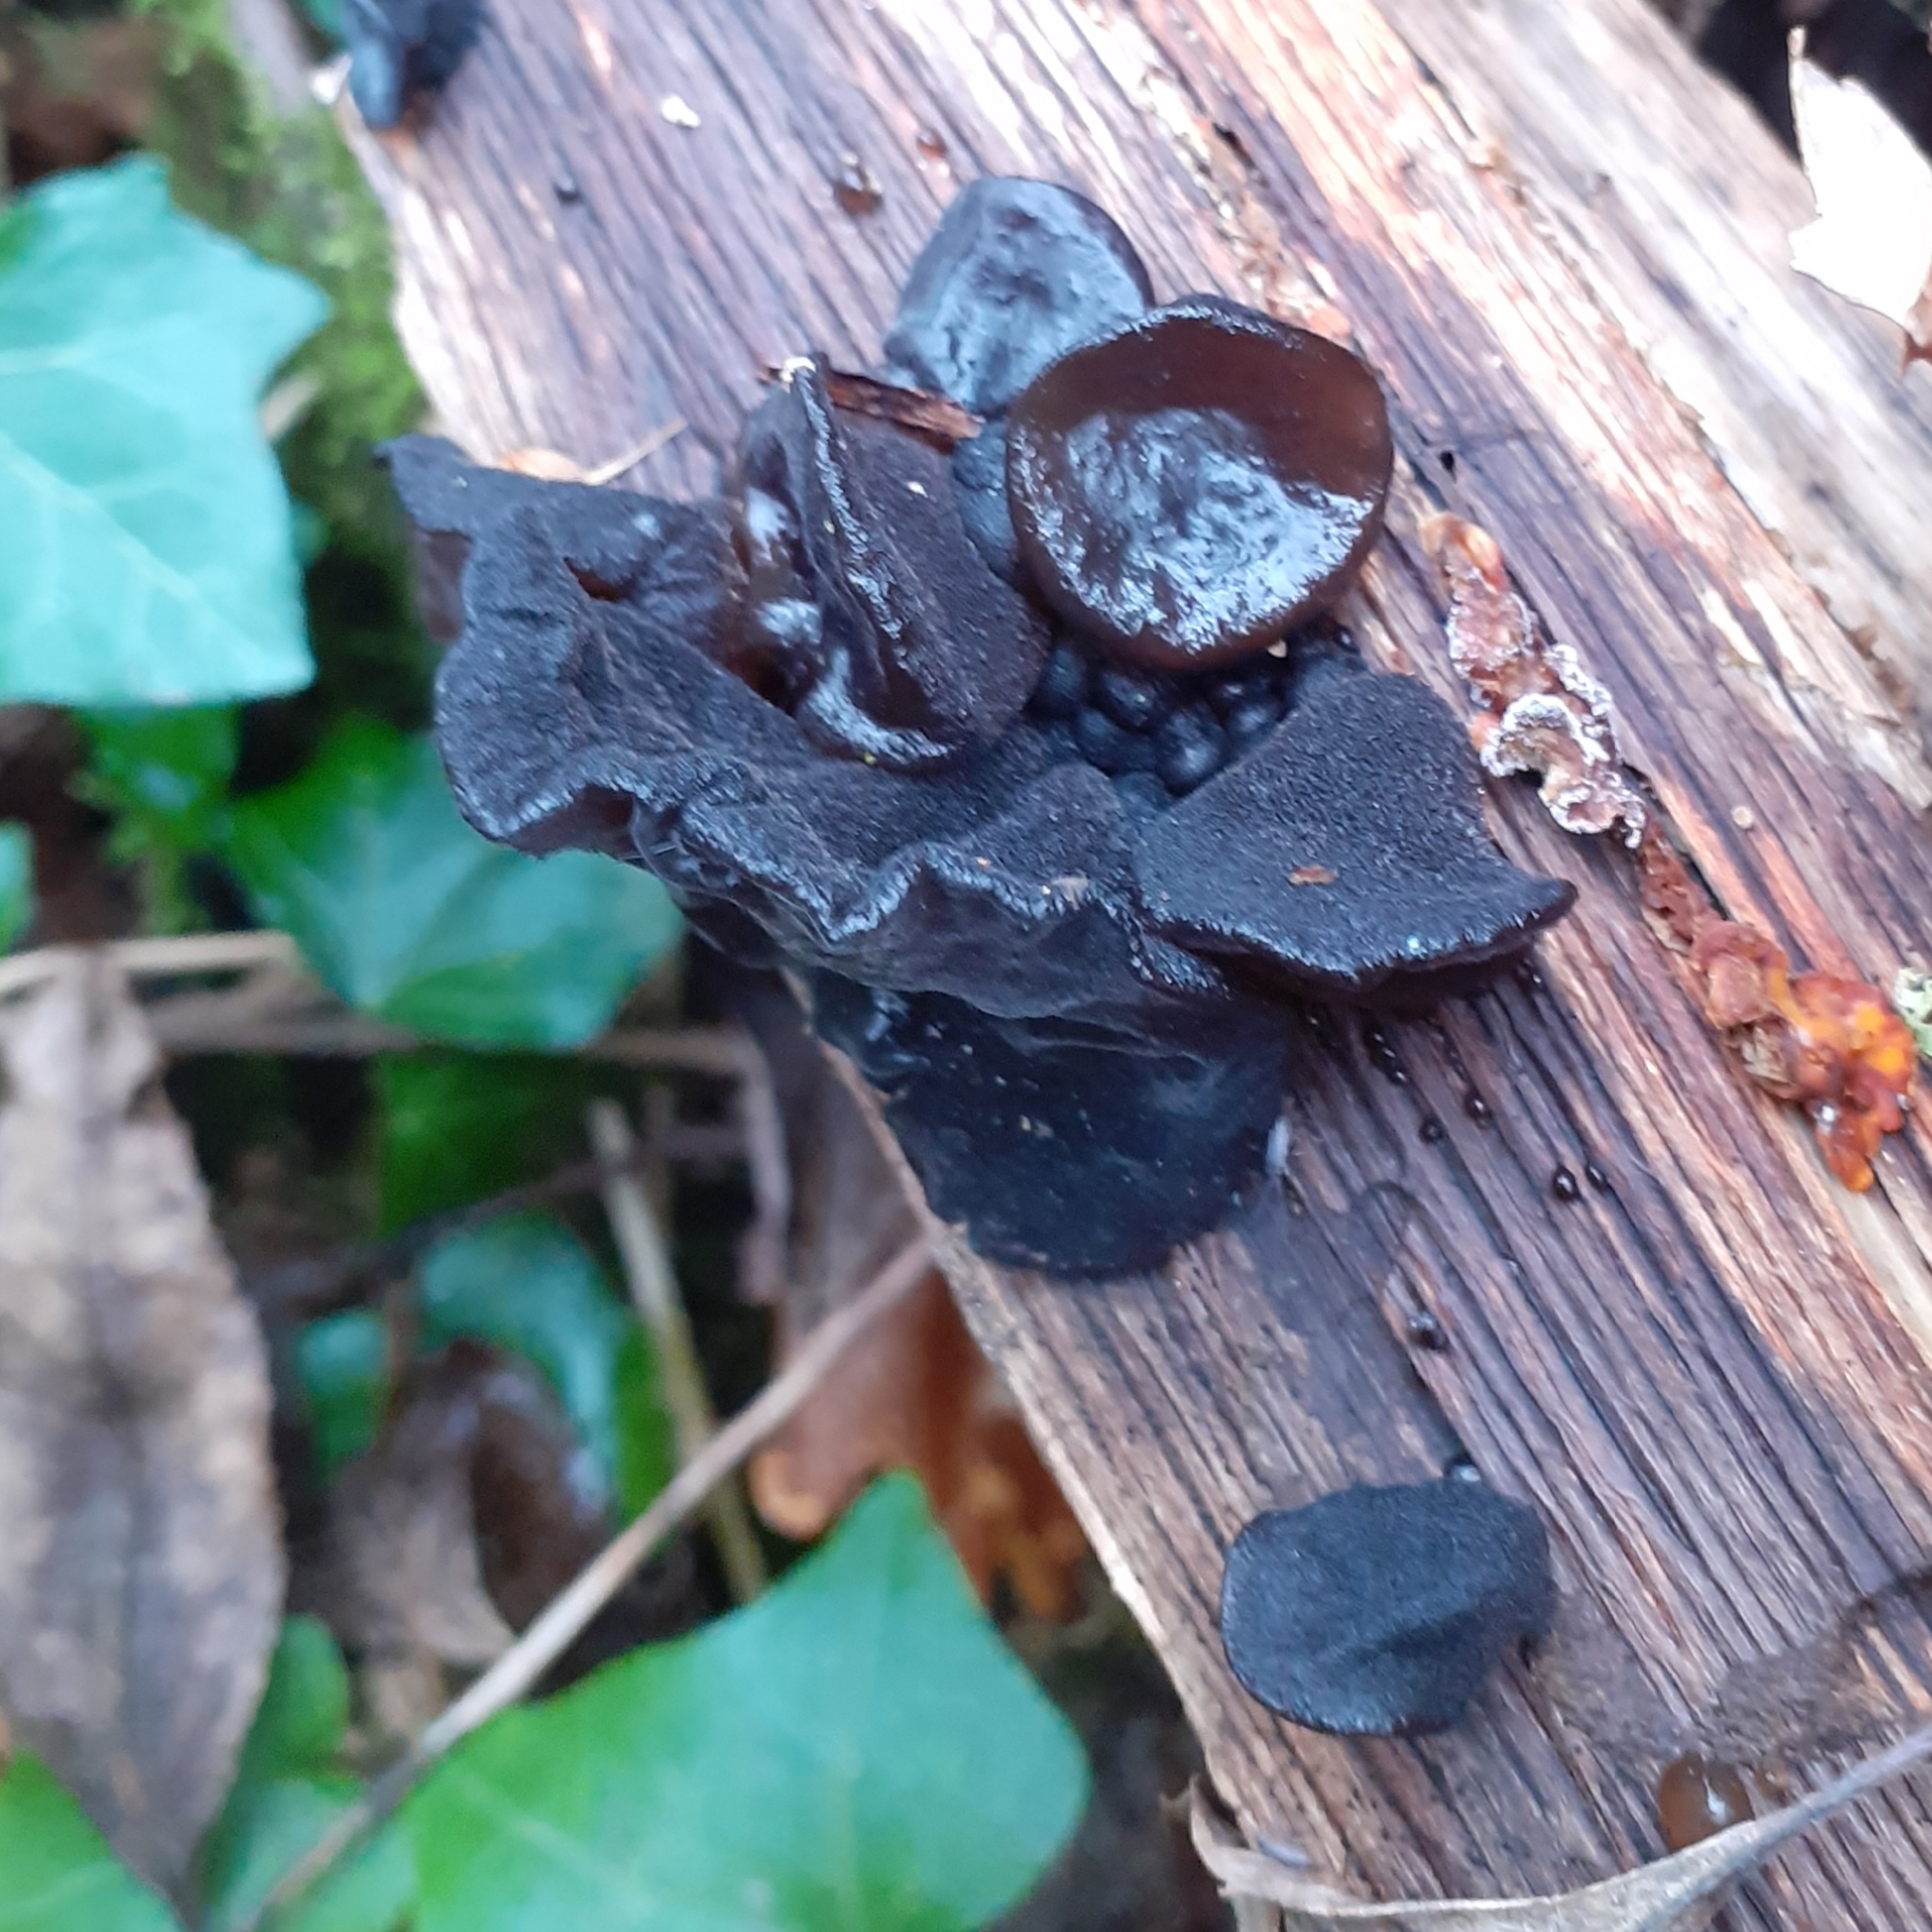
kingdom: Fungi
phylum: Basidiomycota
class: Agaricomycetes
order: Auriculariales
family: Auriculariaceae
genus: Exidia
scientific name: Exidia glandulosa
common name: Witches' butter
